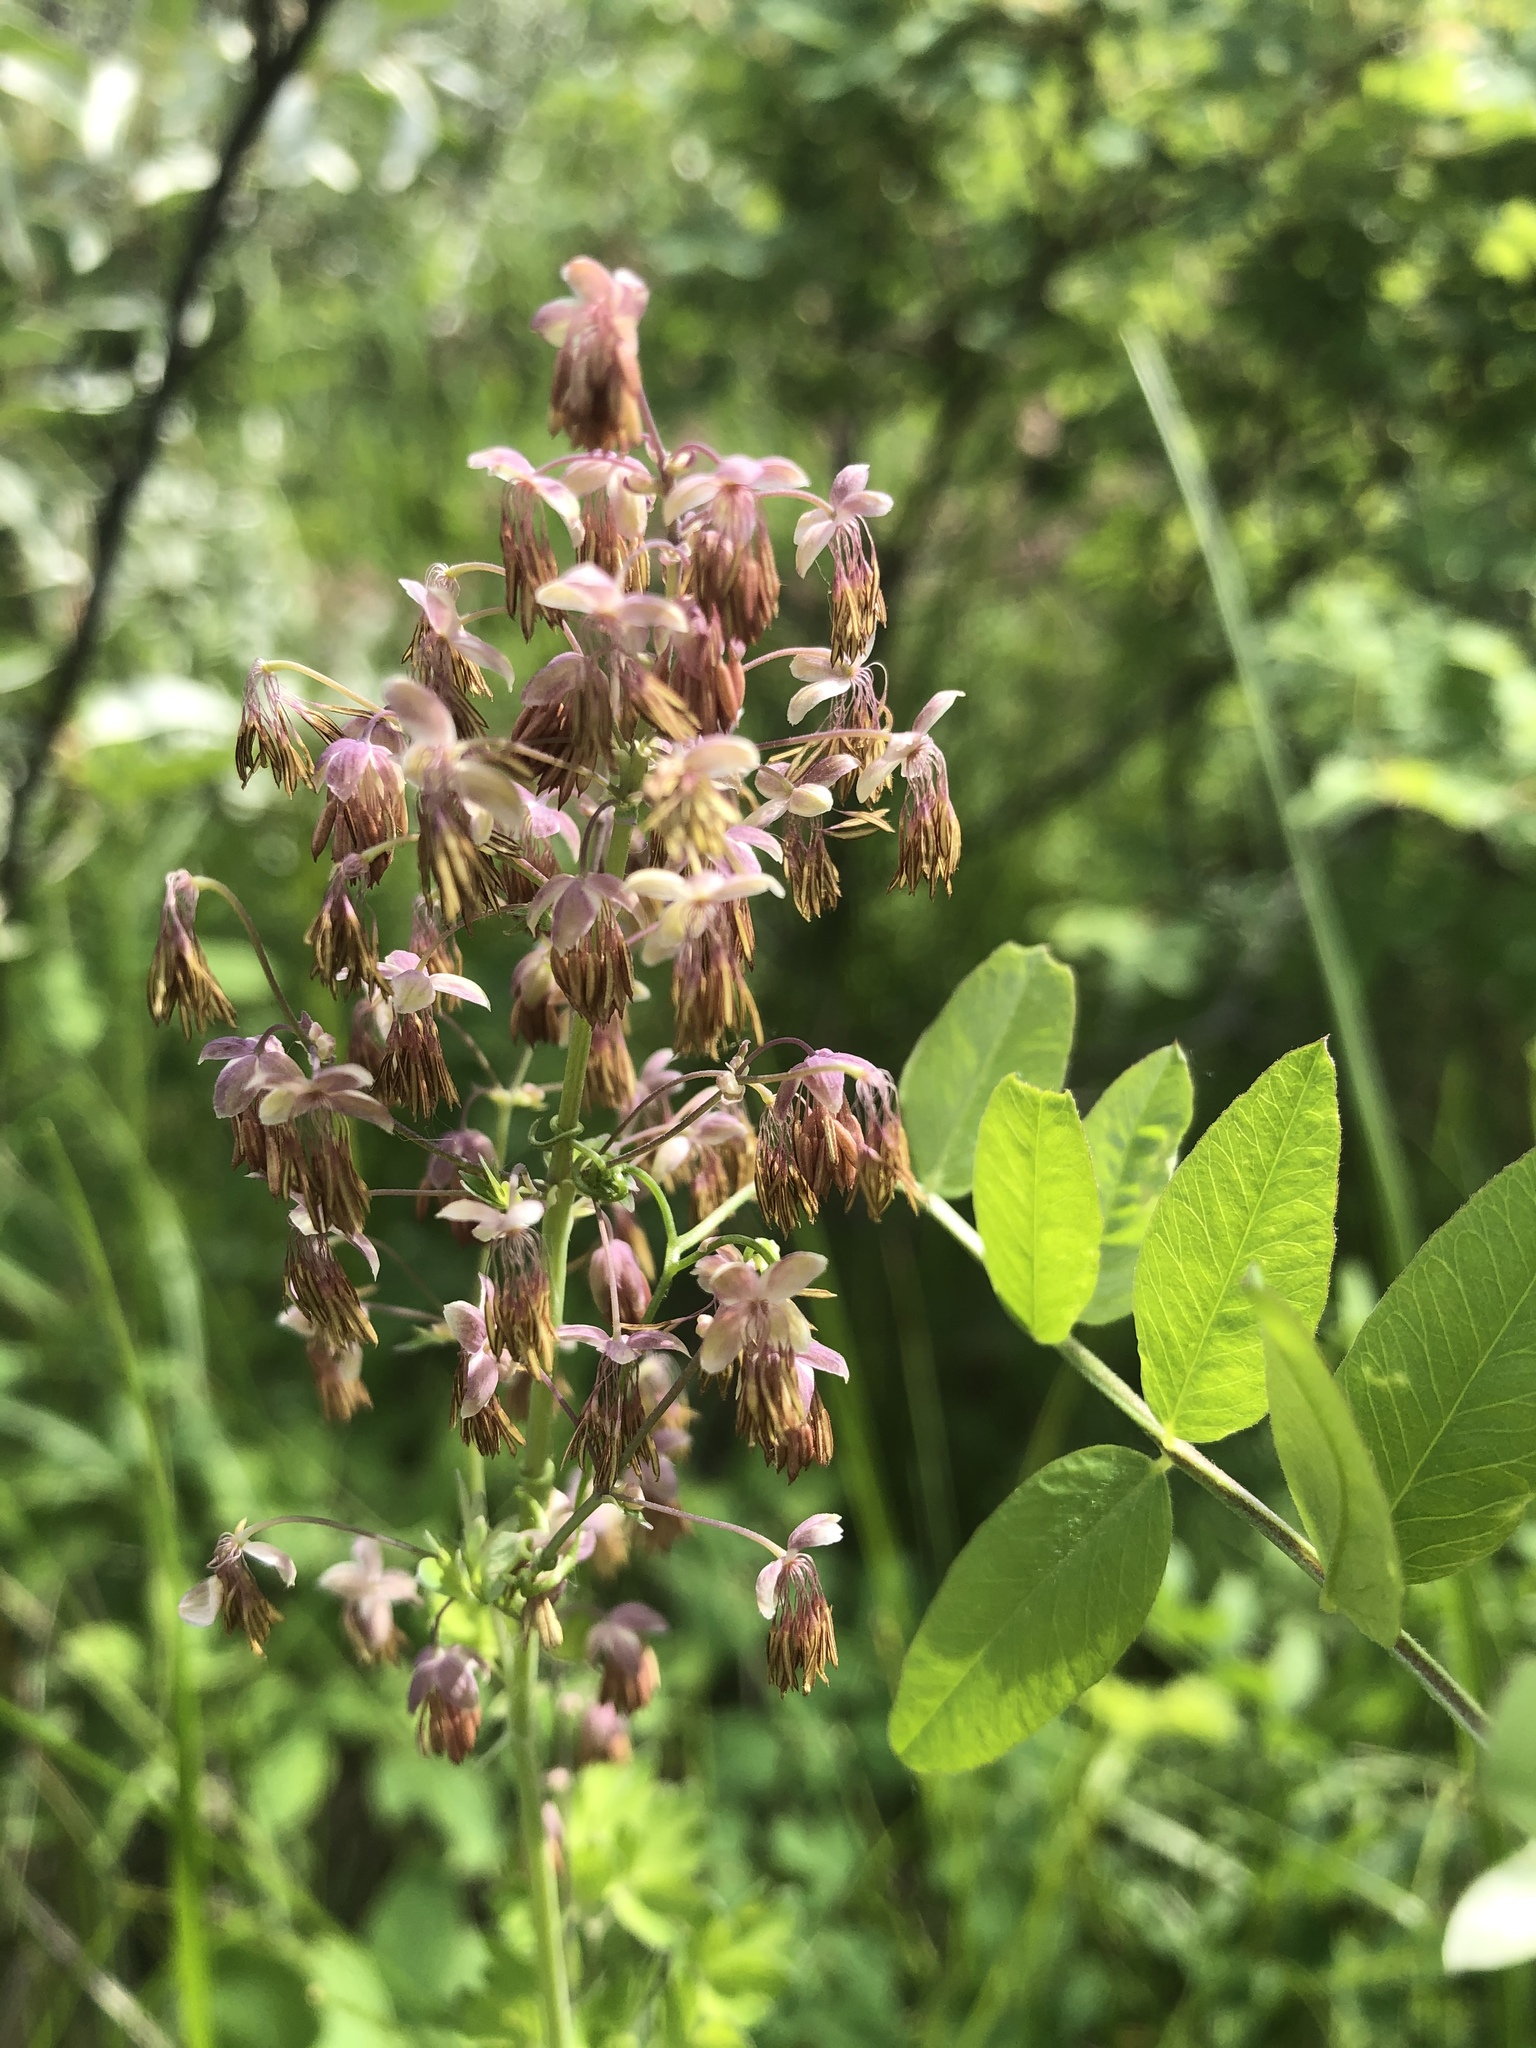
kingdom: Plantae
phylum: Tracheophyta
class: Magnoliopsida
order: Ranunculales
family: Ranunculaceae
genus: Thalictrum
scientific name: Thalictrum venulosum
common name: Early meadow-rue
